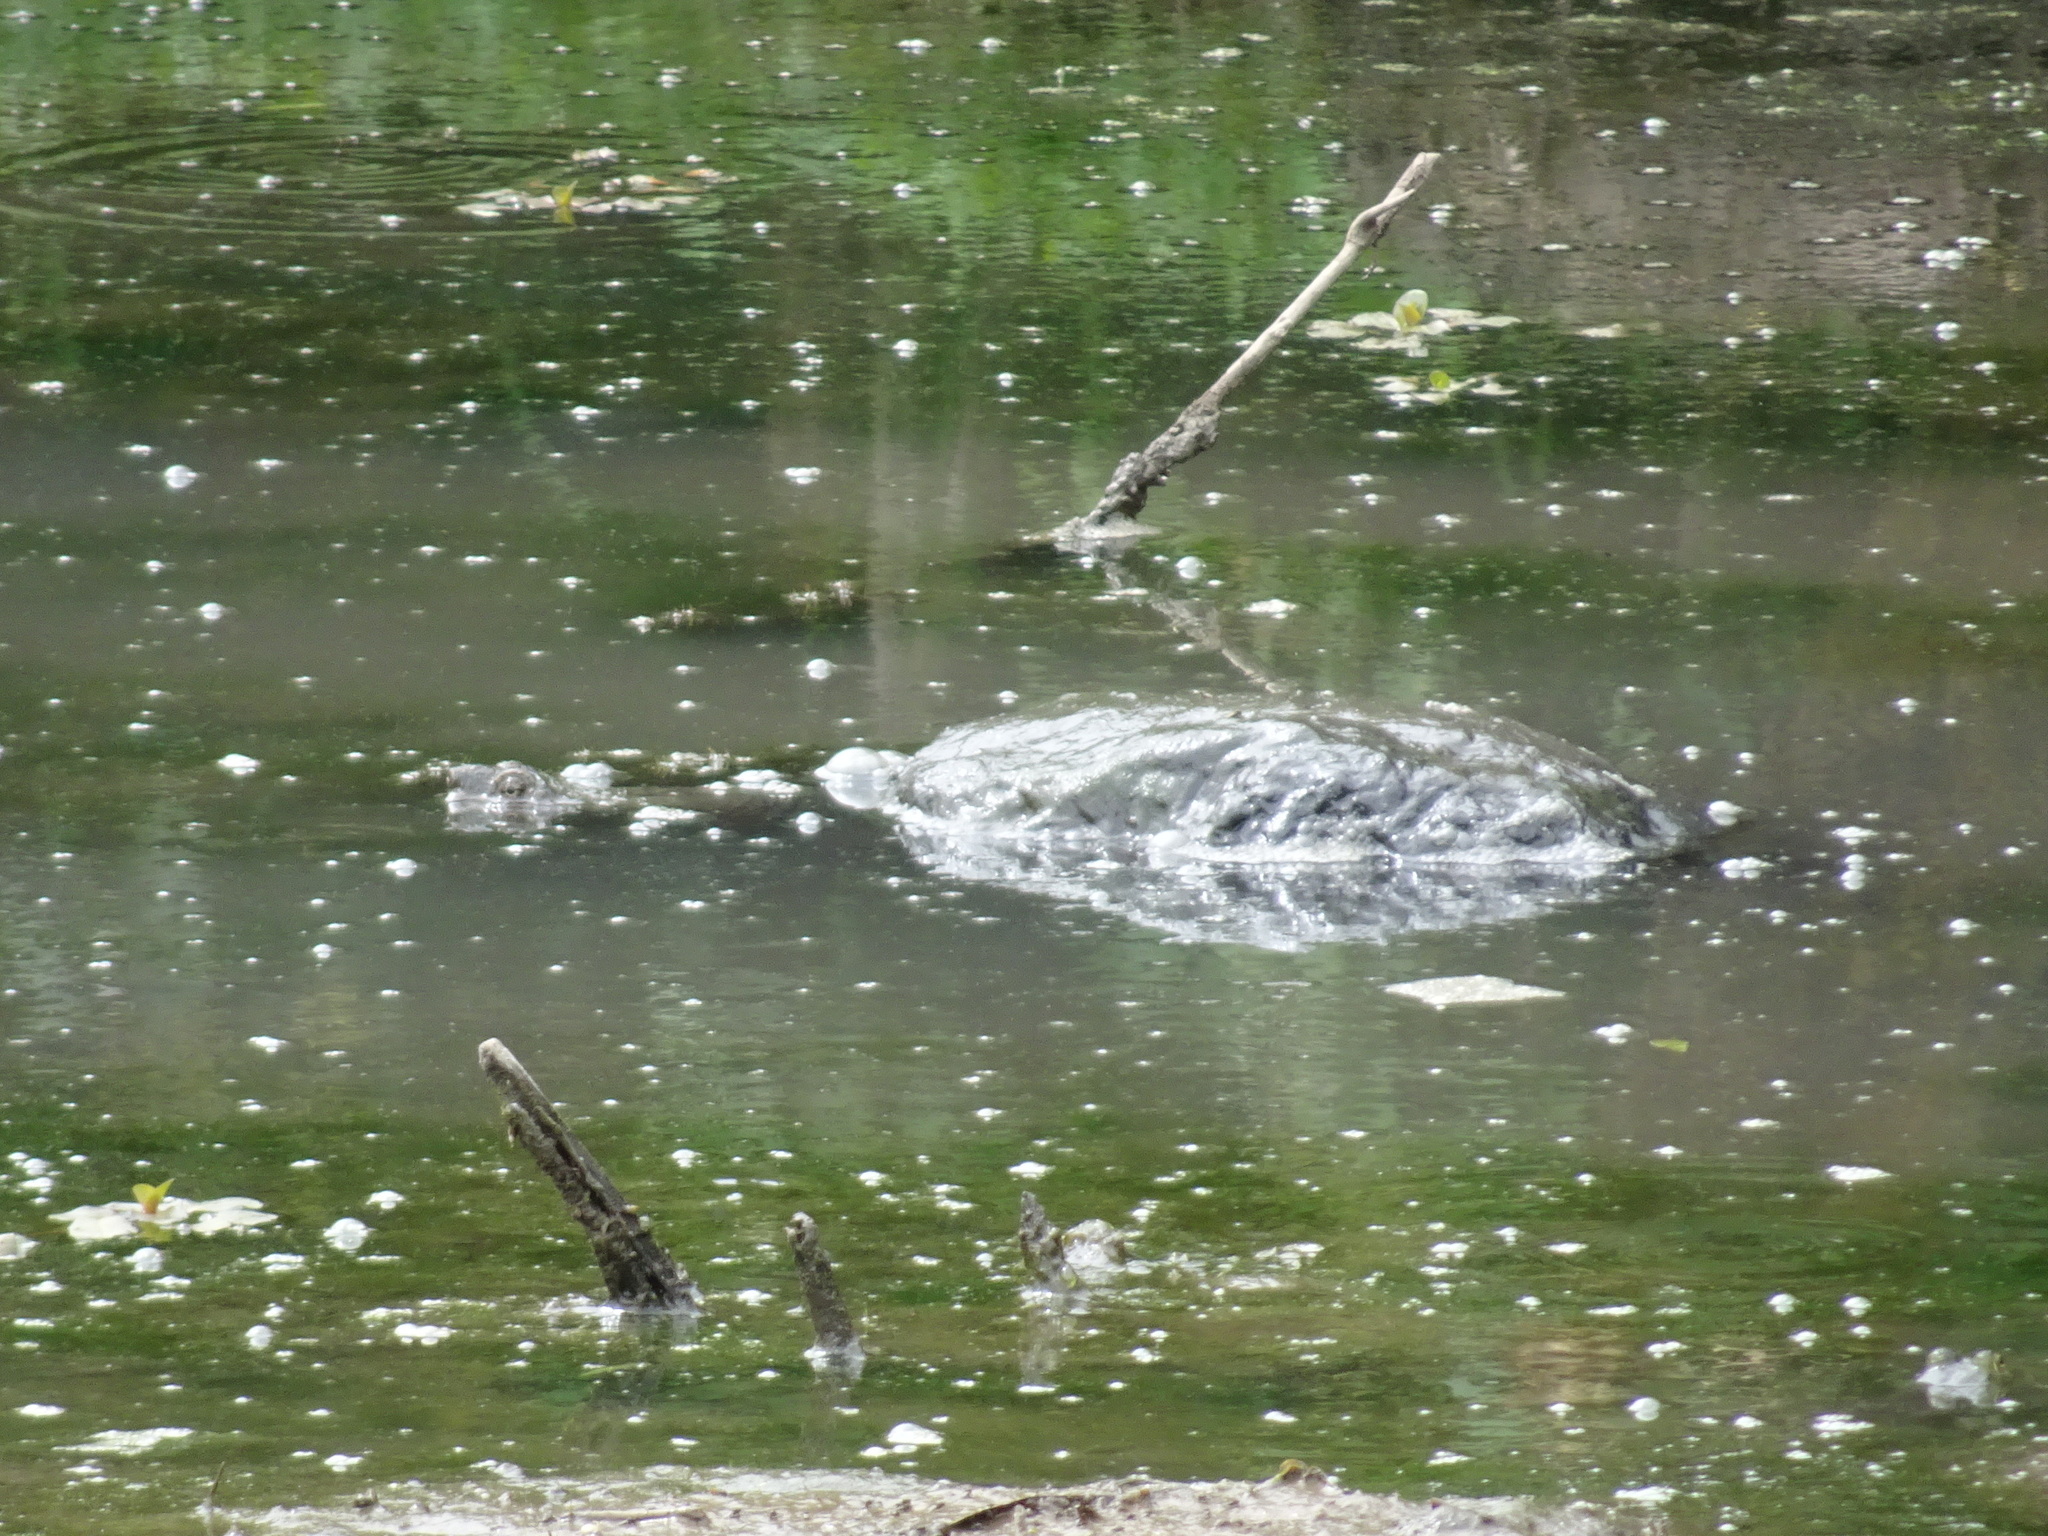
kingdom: Animalia
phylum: Chordata
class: Testudines
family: Chelydridae
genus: Chelydra
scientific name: Chelydra serpentina
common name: Common snapping turtle
